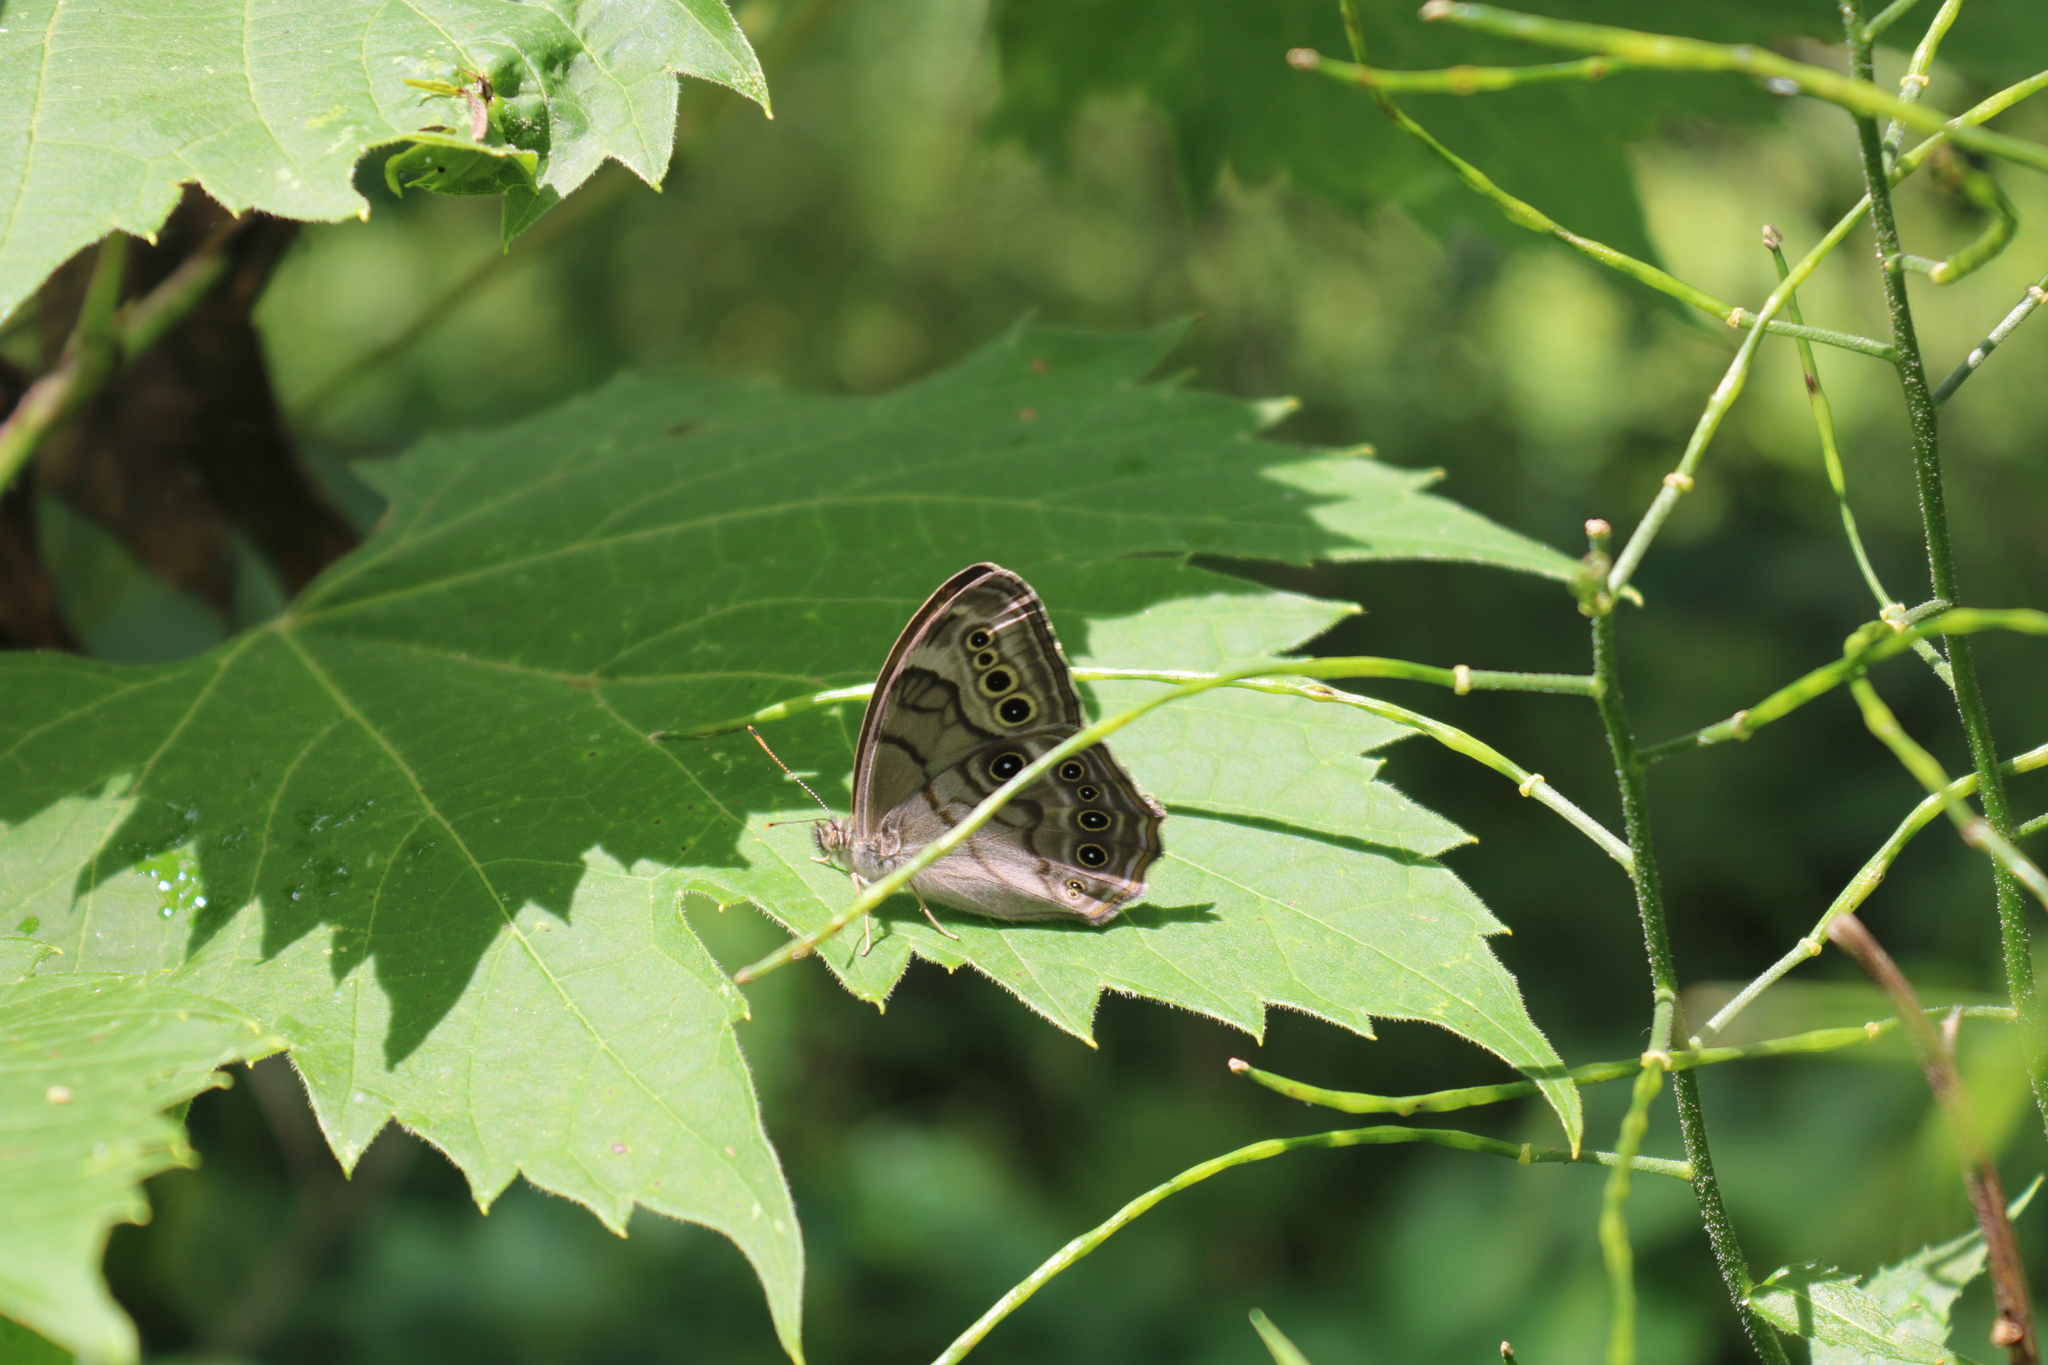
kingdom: Animalia
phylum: Arthropoda
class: Insecta
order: Lepidoptera
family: Nymphalidae
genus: Lethe
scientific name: Lethe anthedon
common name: Northern pearly-eye
